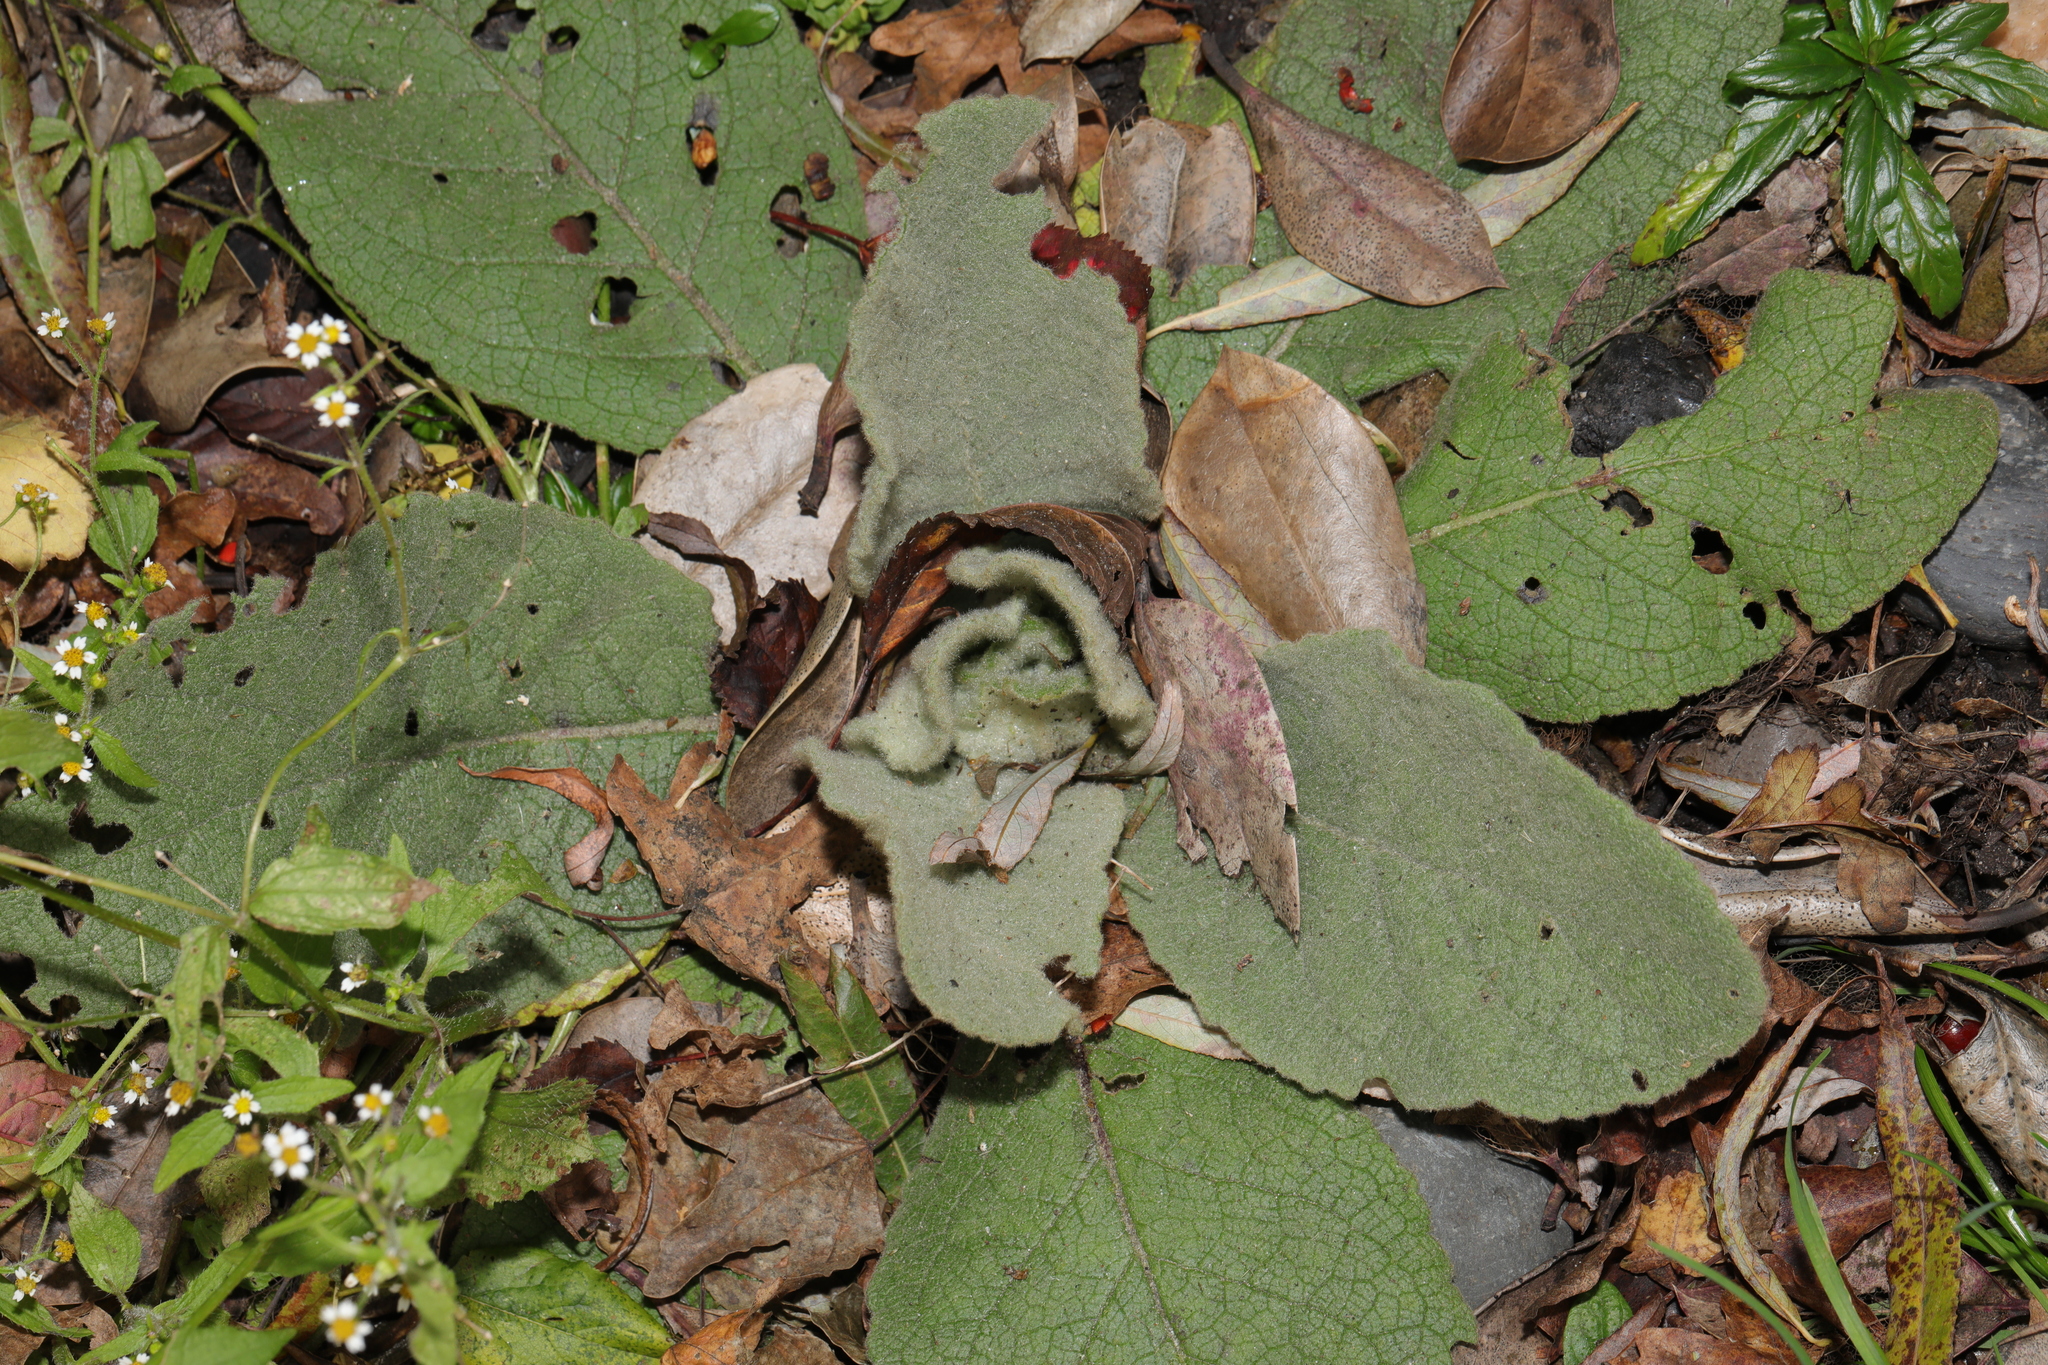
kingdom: Plantae
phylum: Tracheophyta
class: Magnoliopsida
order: Lamiales
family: Scrophulariaceae
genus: Verbascum
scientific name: Verbascum thapsus
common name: Common mullein
